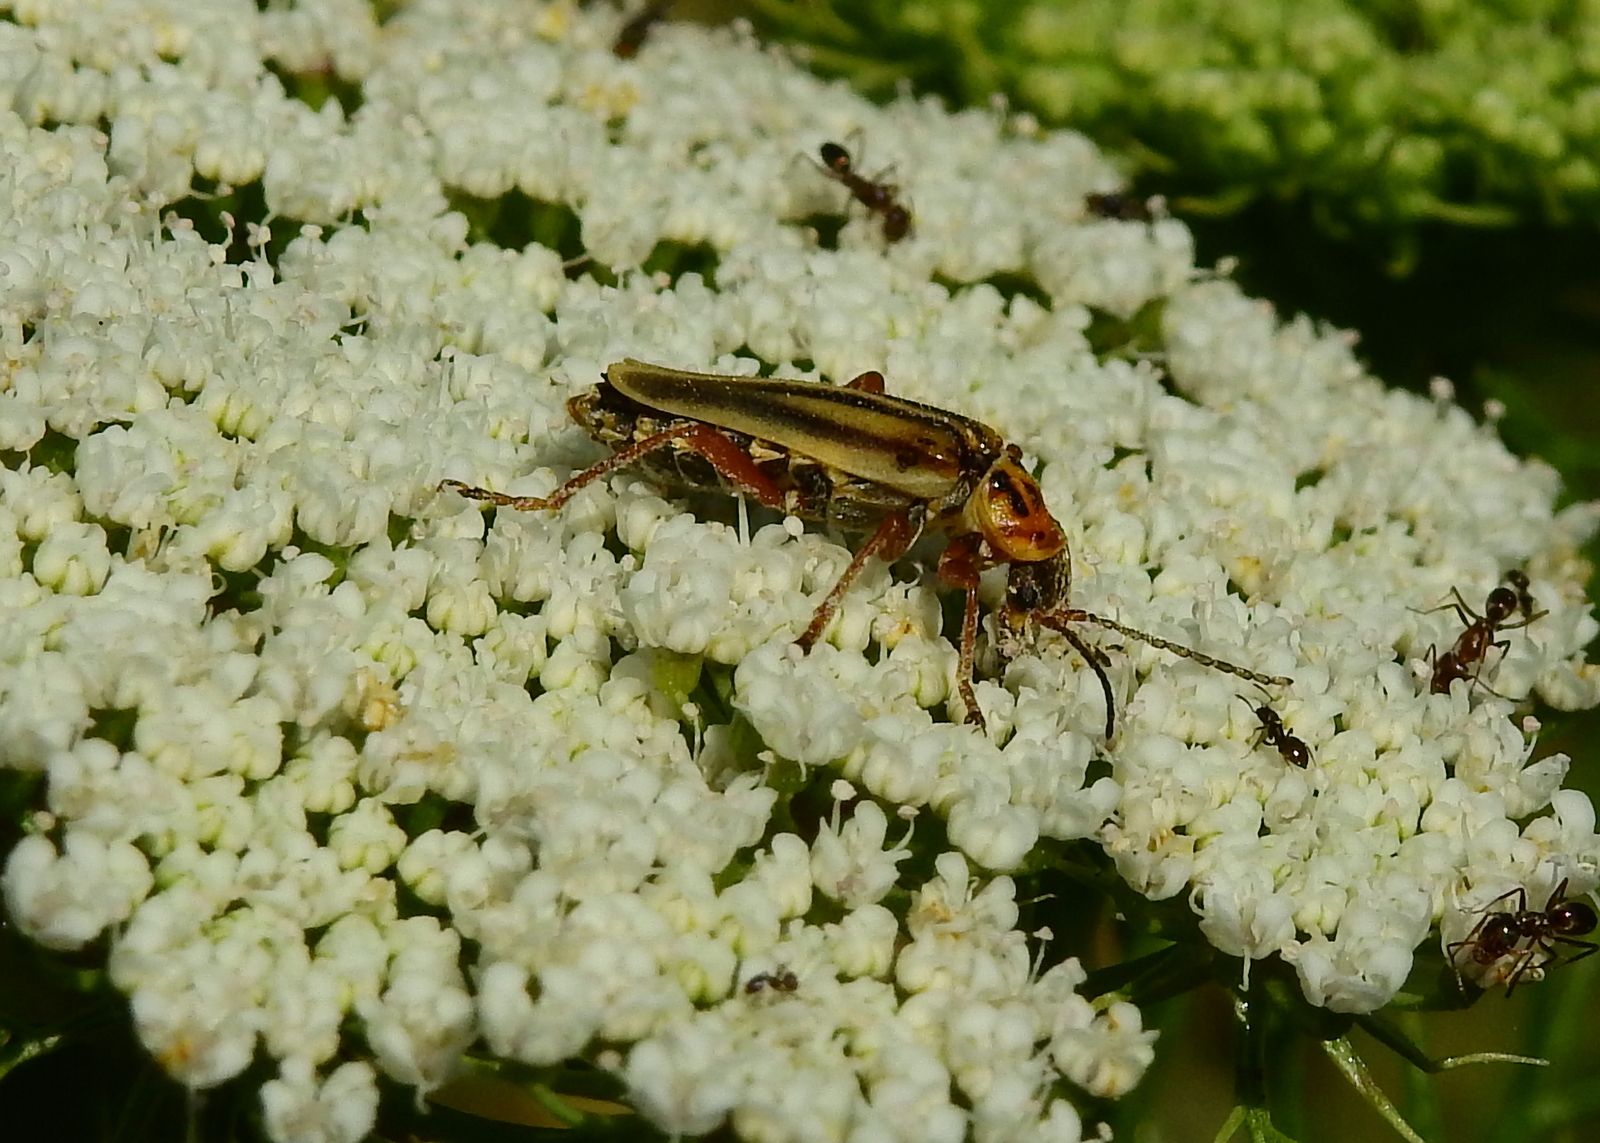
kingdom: Animalia
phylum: Arthropoda
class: Insecta
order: Coleoptera
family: Cantharidae
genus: Chauliognathus
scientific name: Chauliognathus
